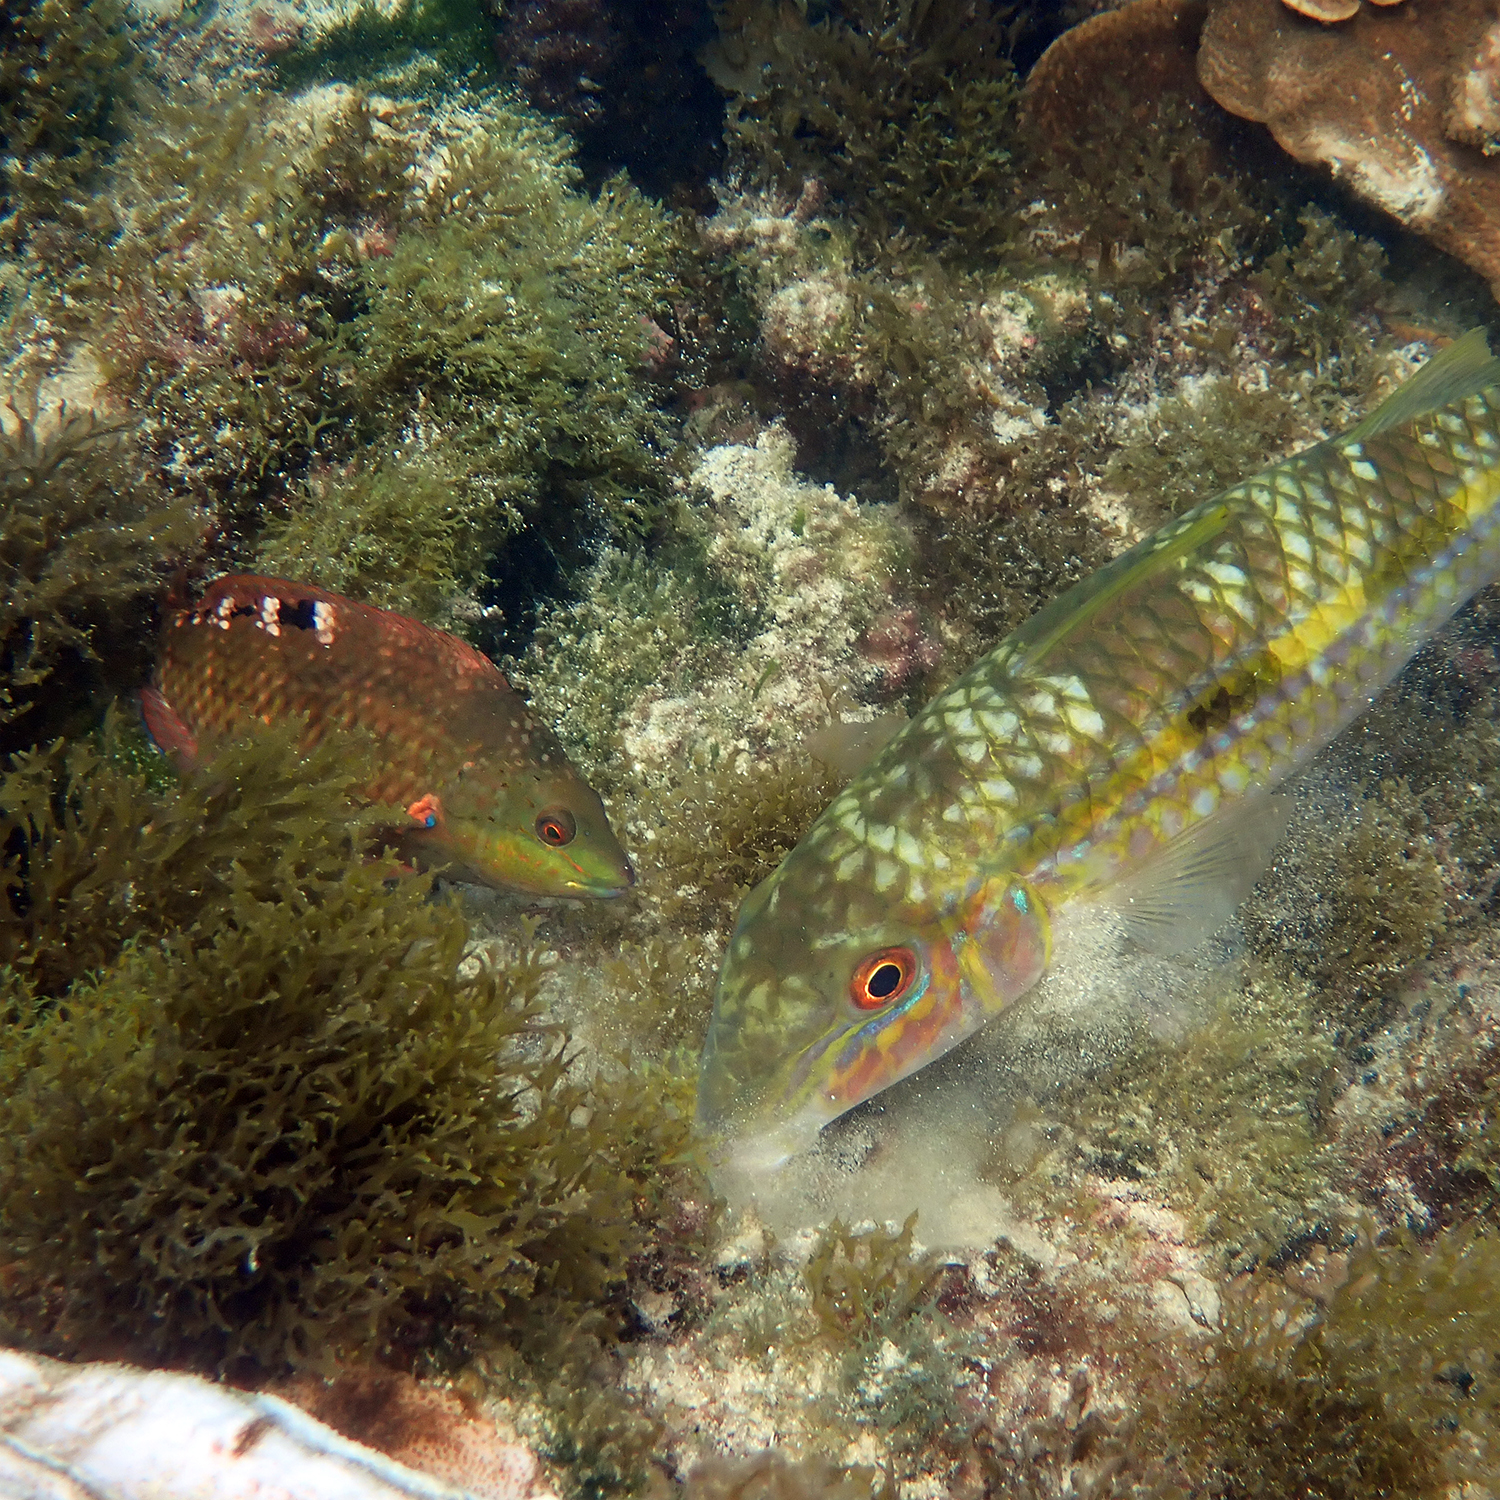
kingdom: Animalia
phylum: Chordata
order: Perciformes
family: Labridae
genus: Pseudolabrus
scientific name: Pseudolabrus luculentus
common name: Luculentus wrasse
